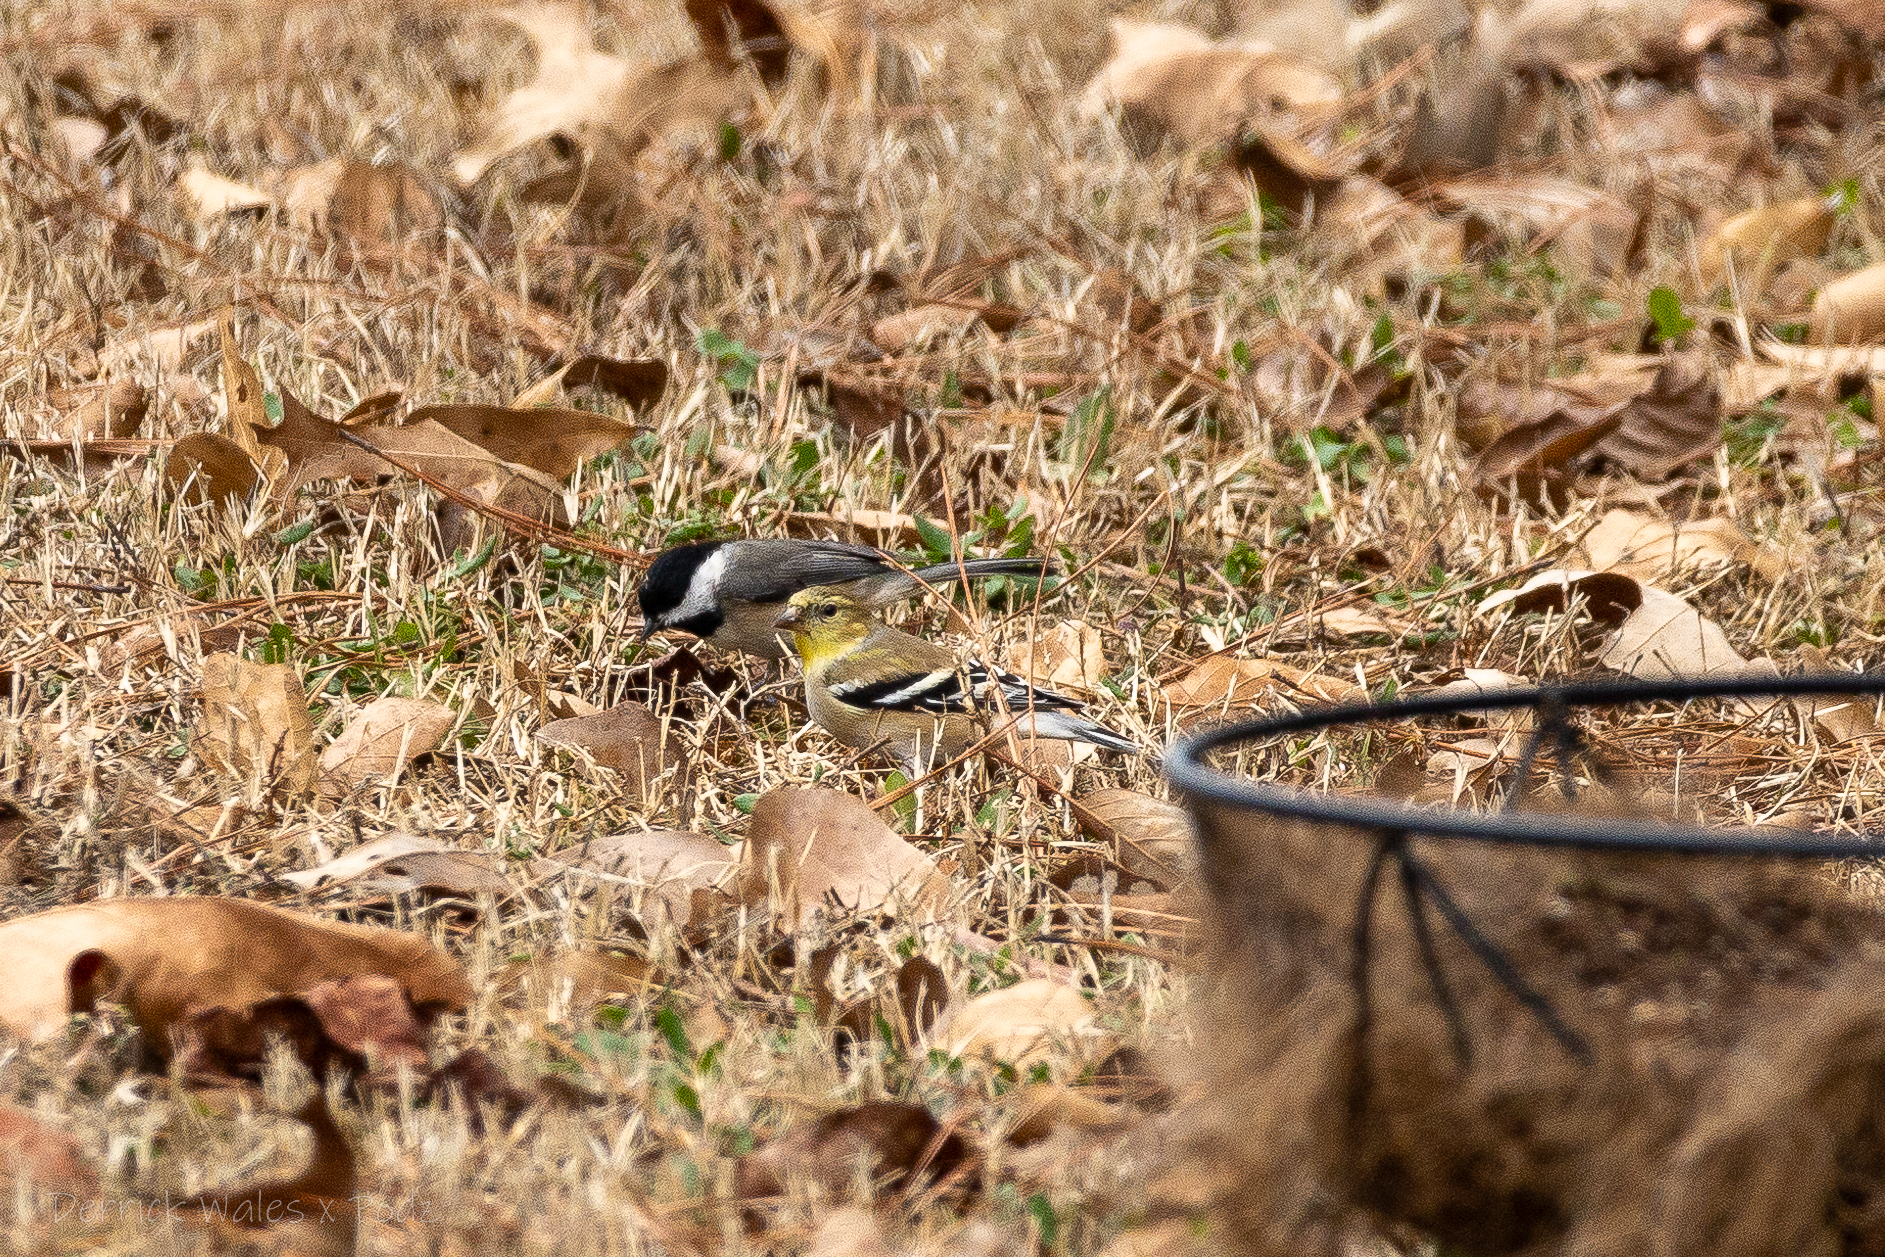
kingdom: Animalia
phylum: Chordata
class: Aves
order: Passeriformes
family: Fringillidae
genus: Spinus
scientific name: Spinus tristis
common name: American goldfinch
